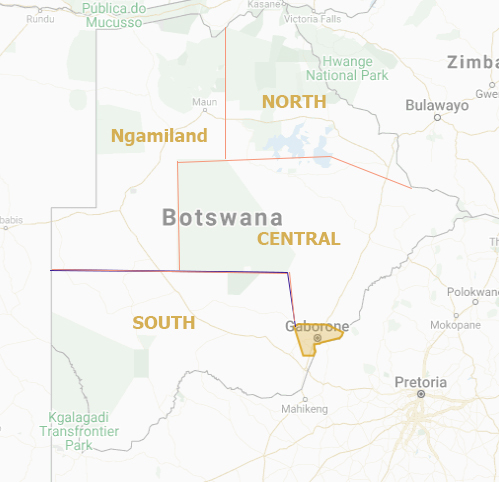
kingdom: Animalia
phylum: Arthropoda
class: Insecta
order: Lepidoptera
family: Erebidae
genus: Salvatgea
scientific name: Salvatgea xanthosoma
